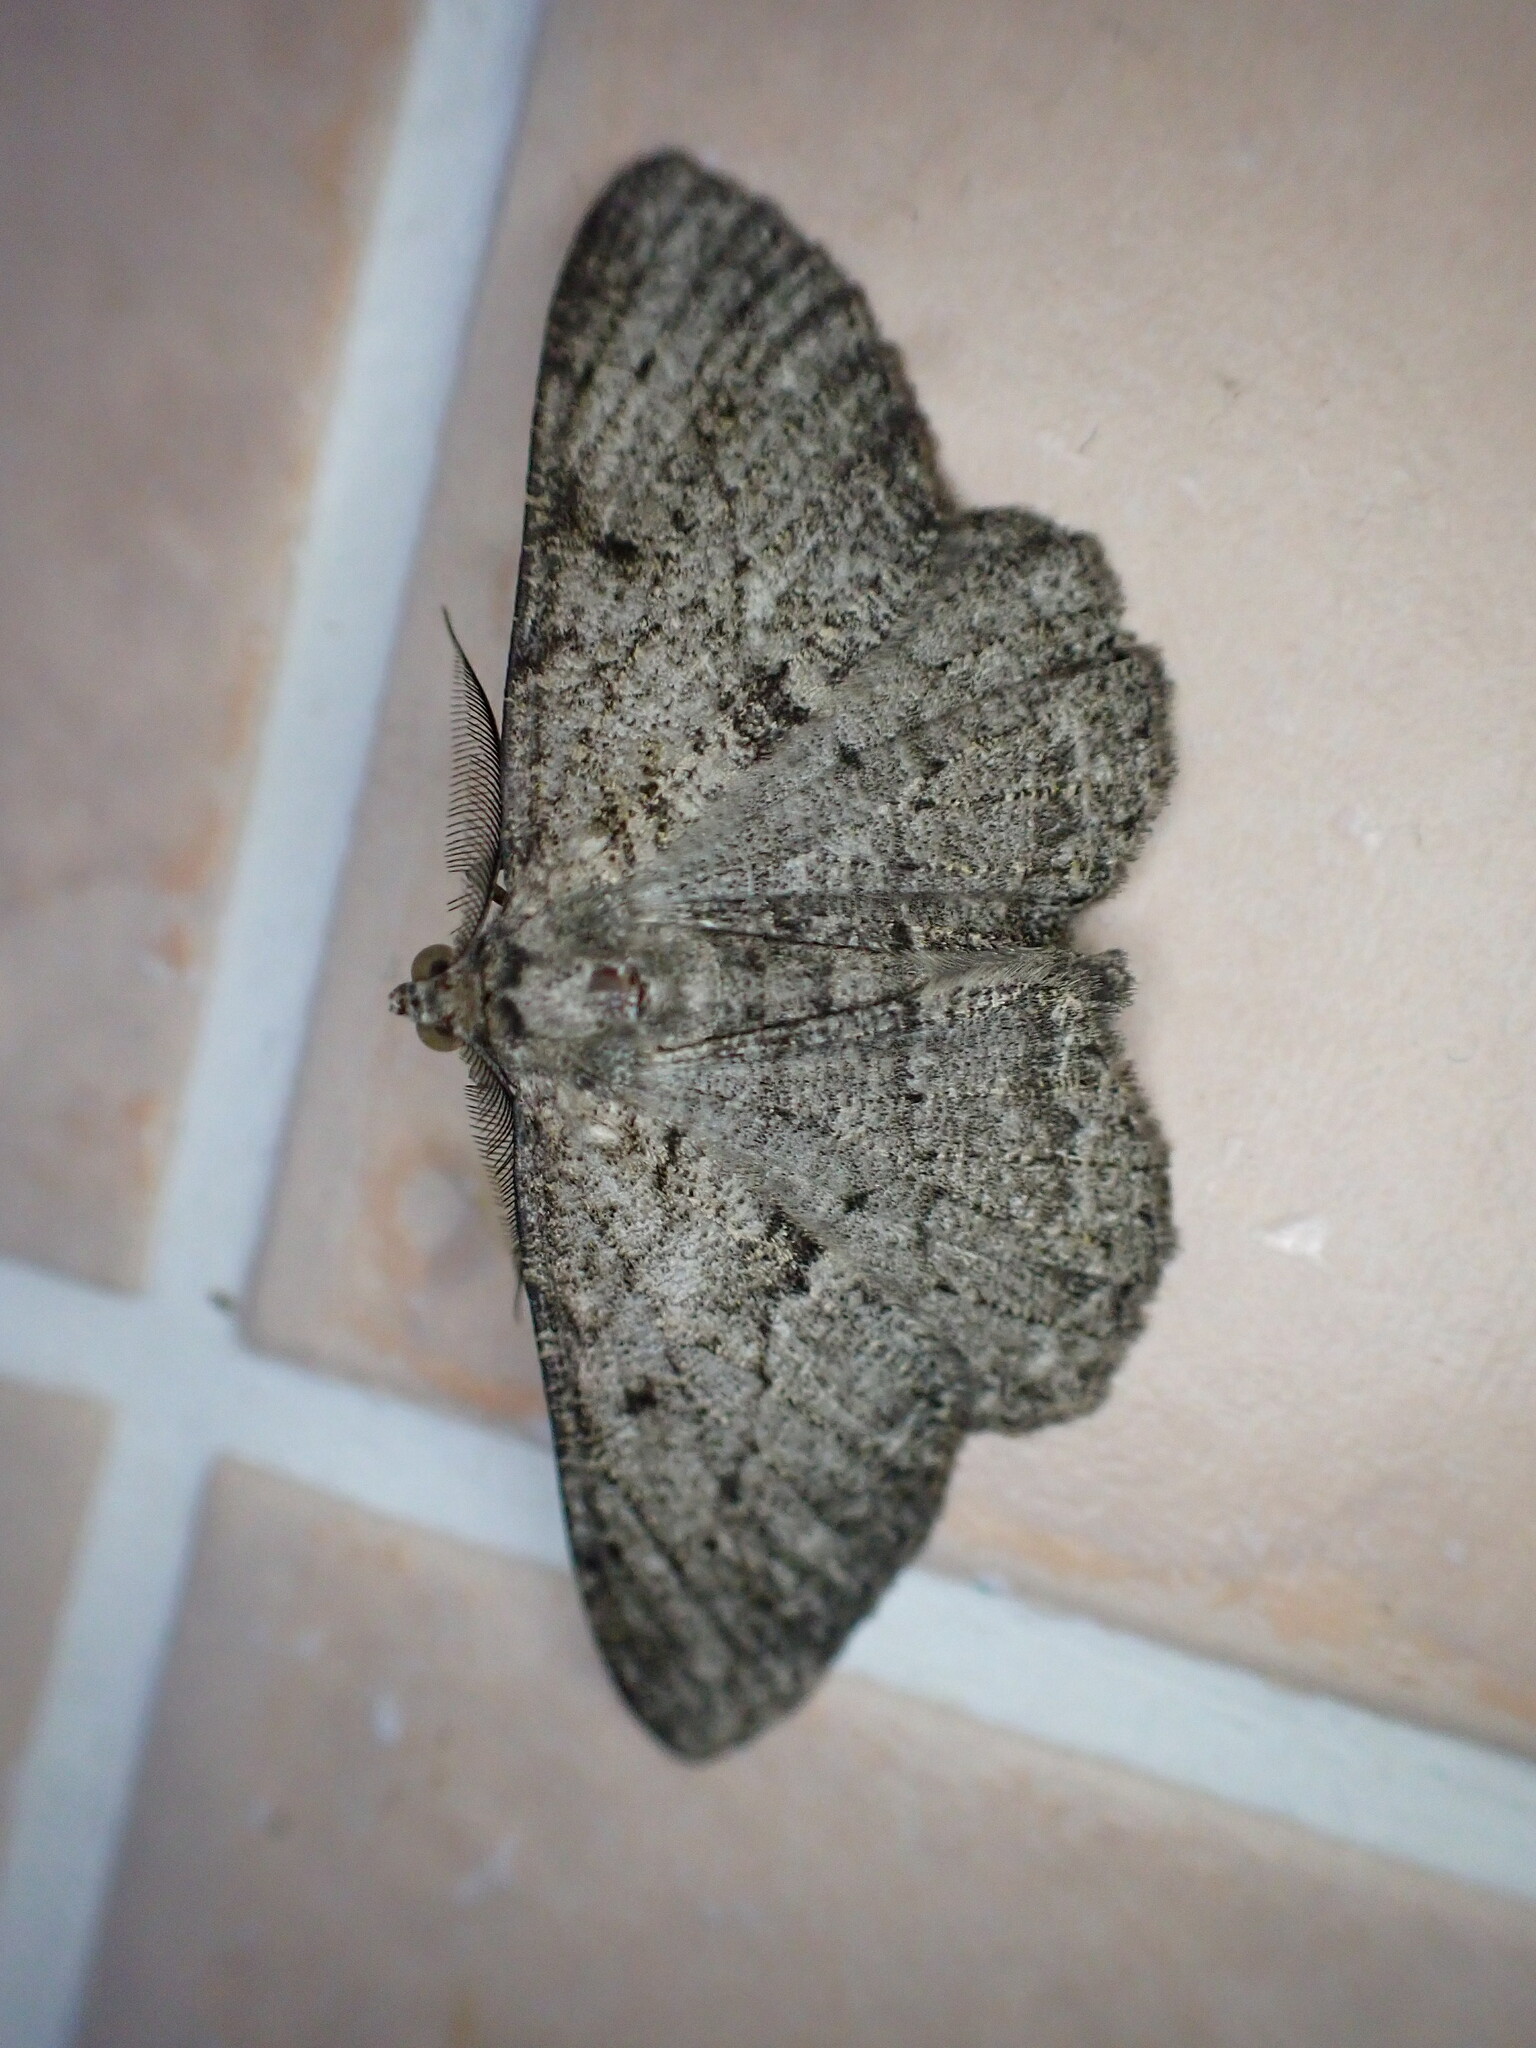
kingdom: Animalia
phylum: Arthropoda
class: Insecta
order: Lepidoptera
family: Geometridae
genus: Peribatodes
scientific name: Peribatodes rhomboidaria
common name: Willow beauty
